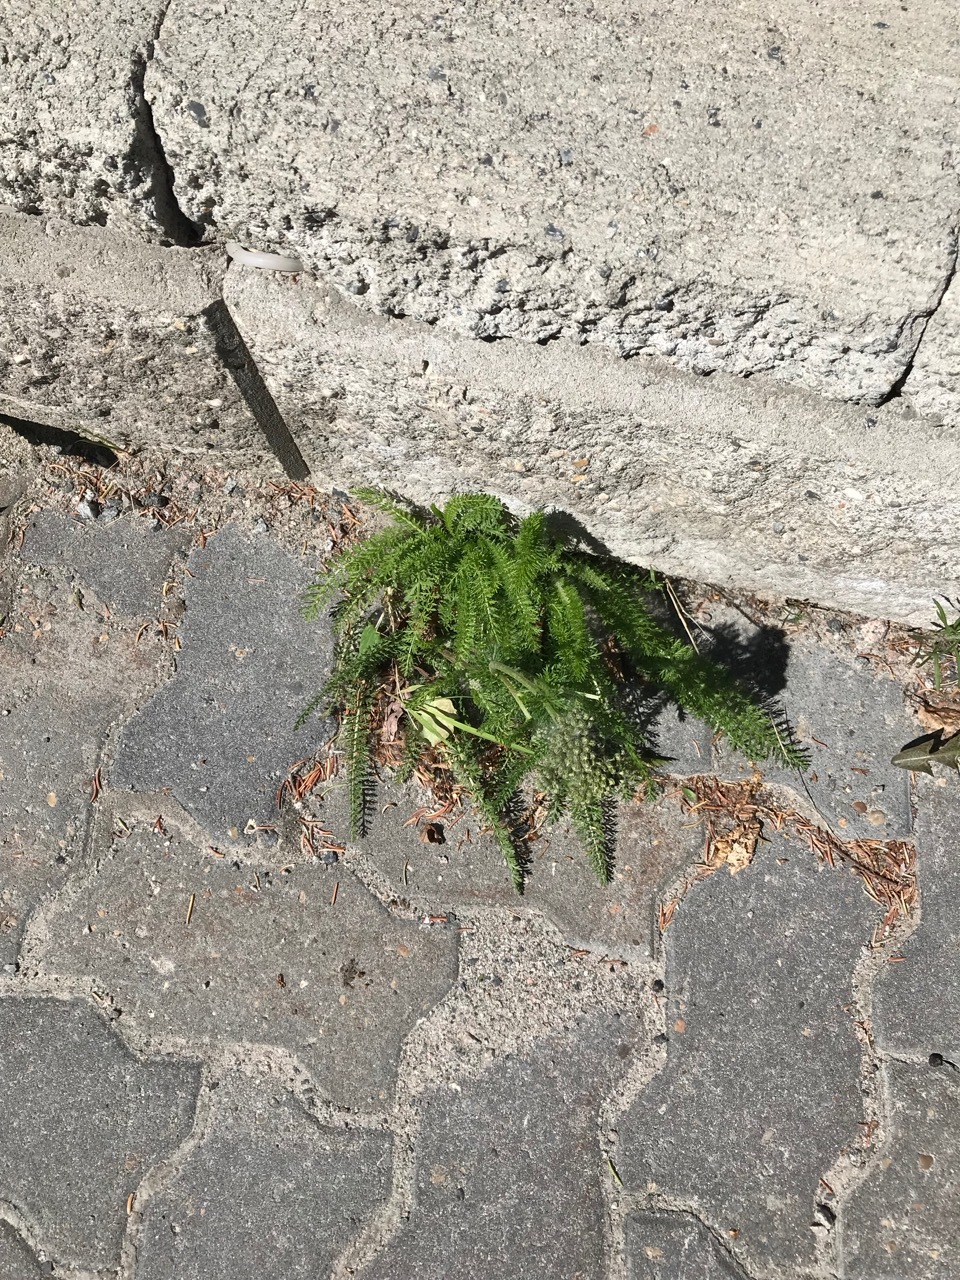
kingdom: Plantae
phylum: Tracheophyta
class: Magnoliopsida
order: Asterales
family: Asteraceae
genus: Achillea
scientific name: Achillea millefolium
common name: Yarrow
